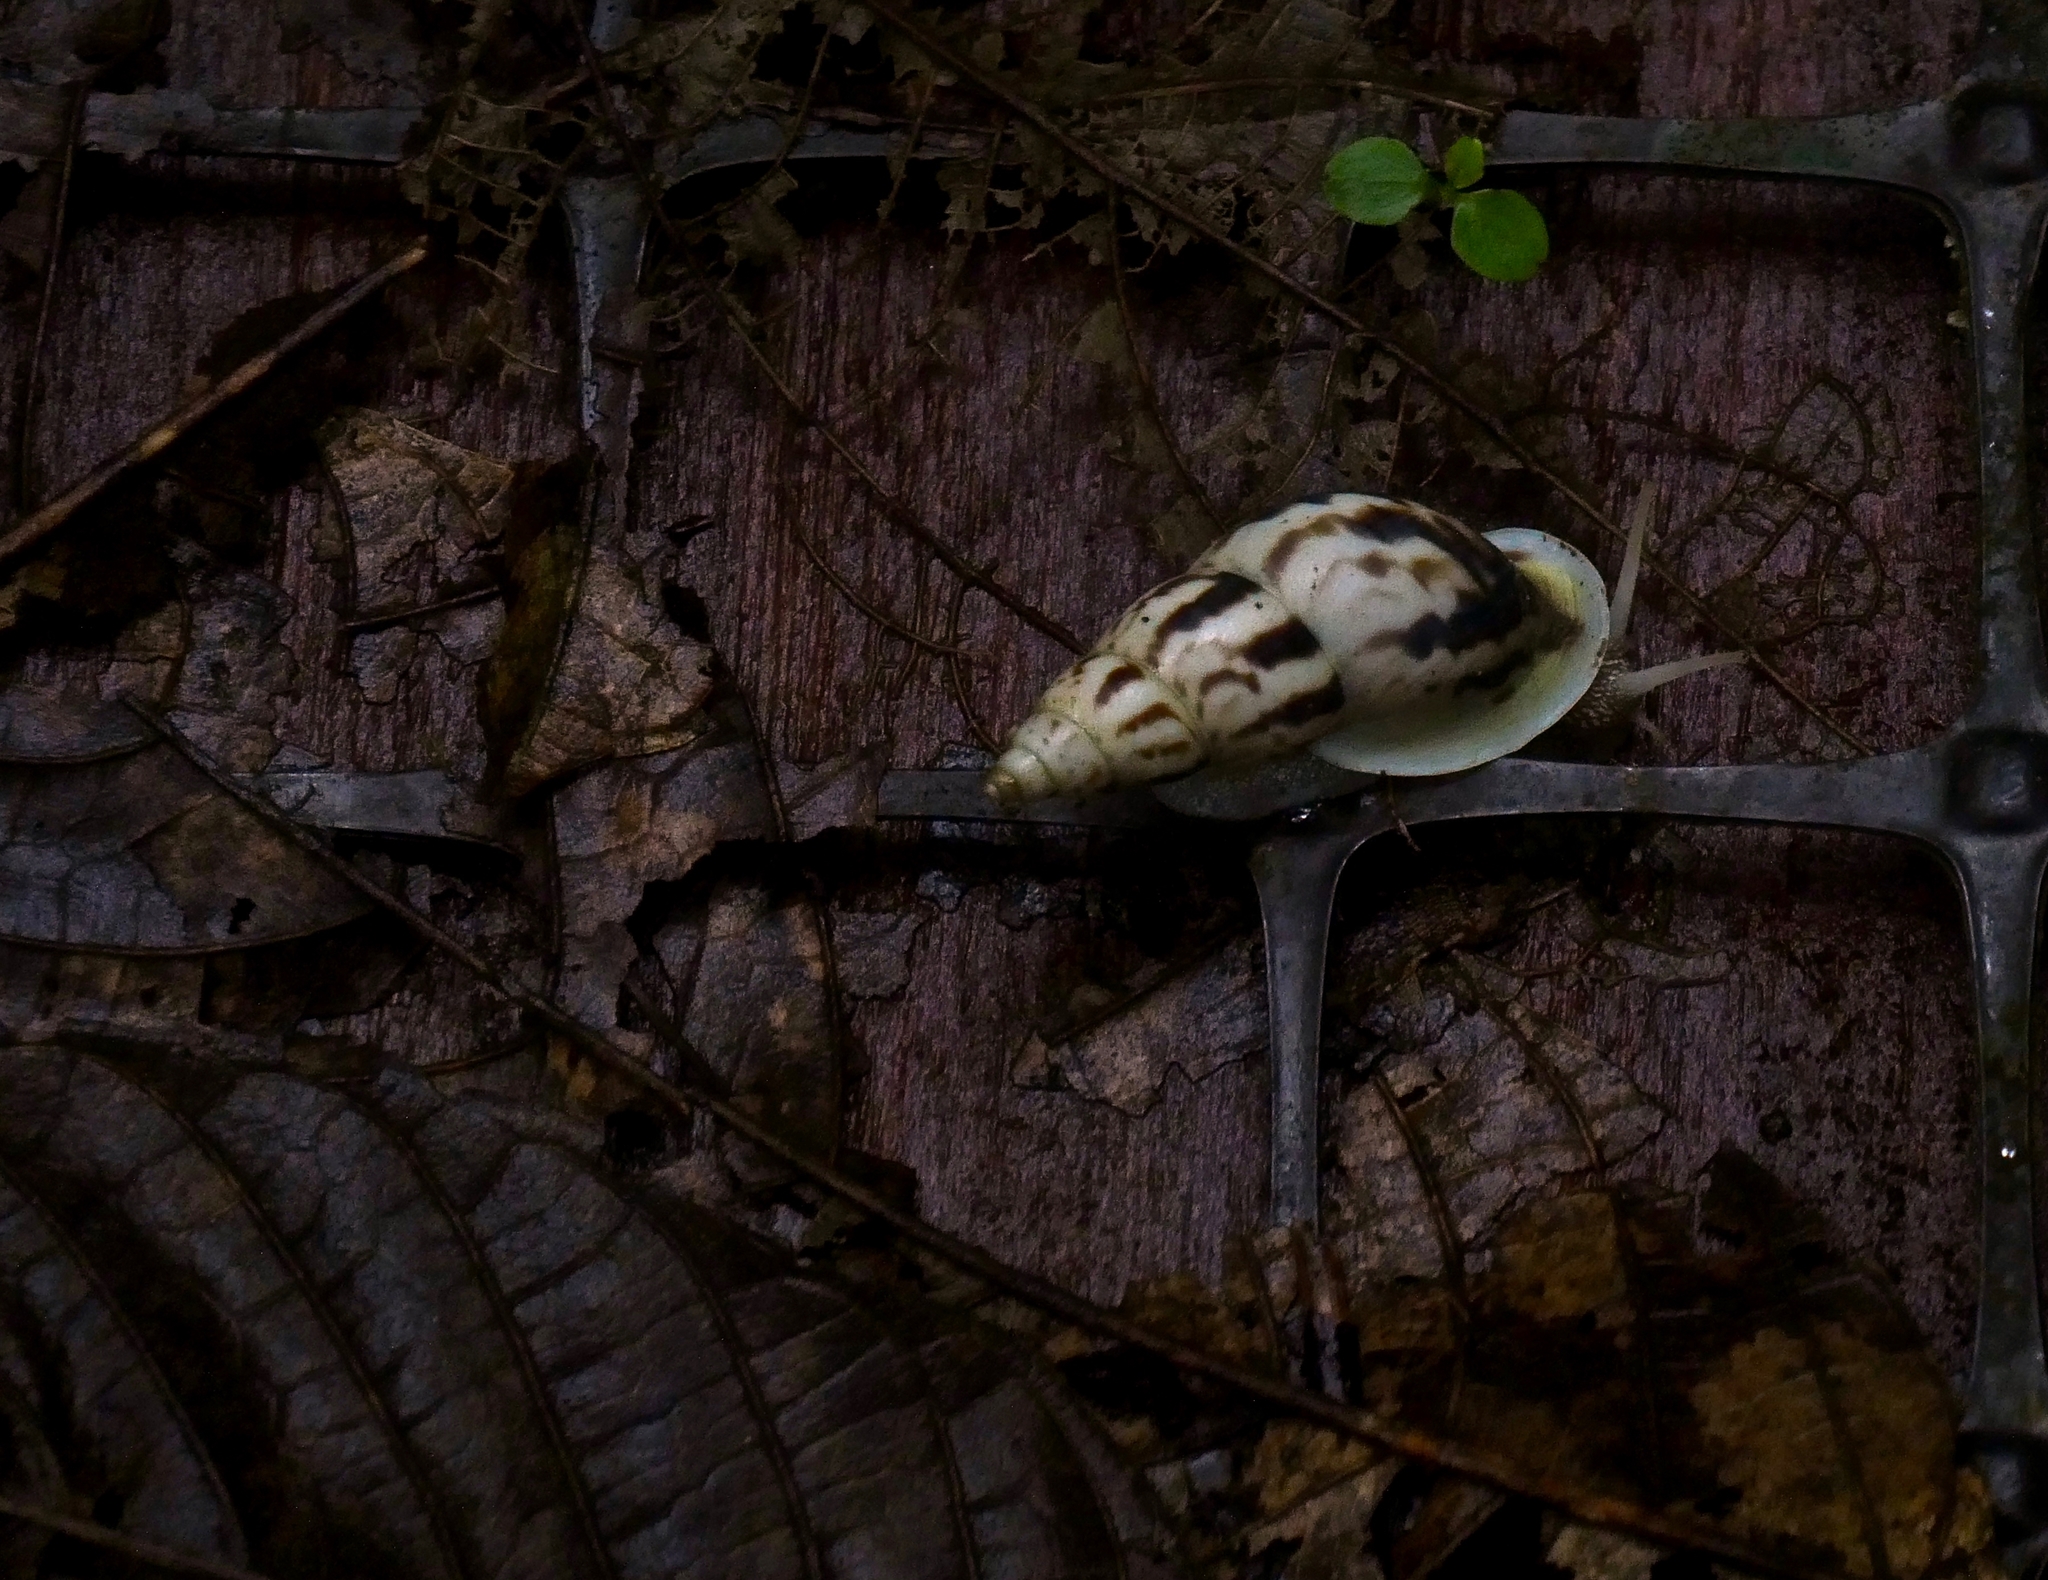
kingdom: Animalia
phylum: Mollusca
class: Gastropoda
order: Stylommatophora
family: Bulimulidae
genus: Drymaeus
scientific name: Drymaeus hidalgoi
